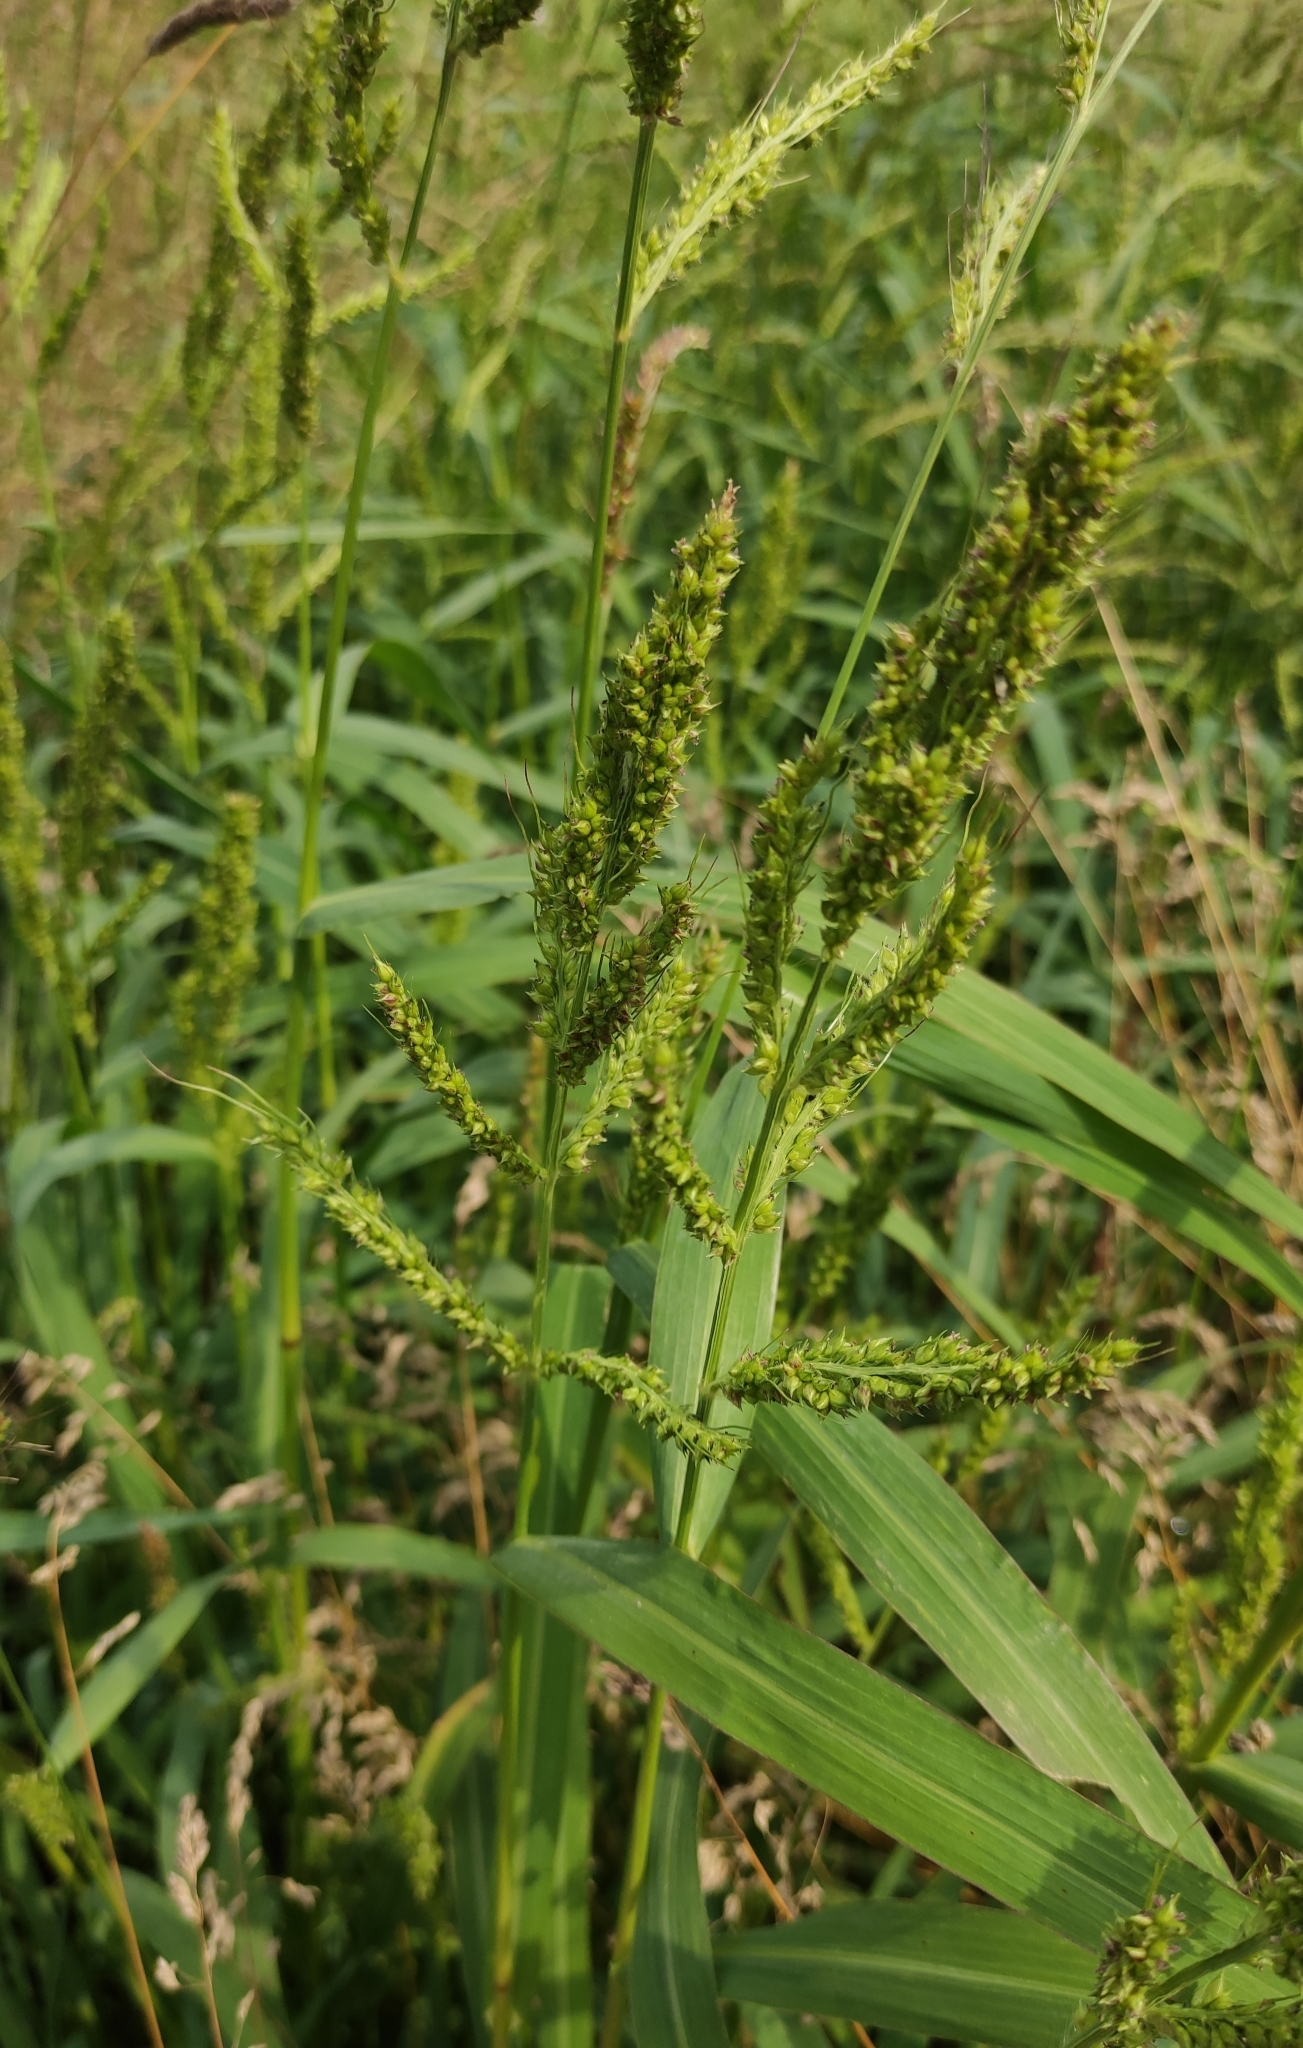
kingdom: Plantae
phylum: Tracheophyta
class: Liliopsida
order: Poales
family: Poaceae
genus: Echinochloa
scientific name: Echinochloa crus-galli
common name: Cockspur
